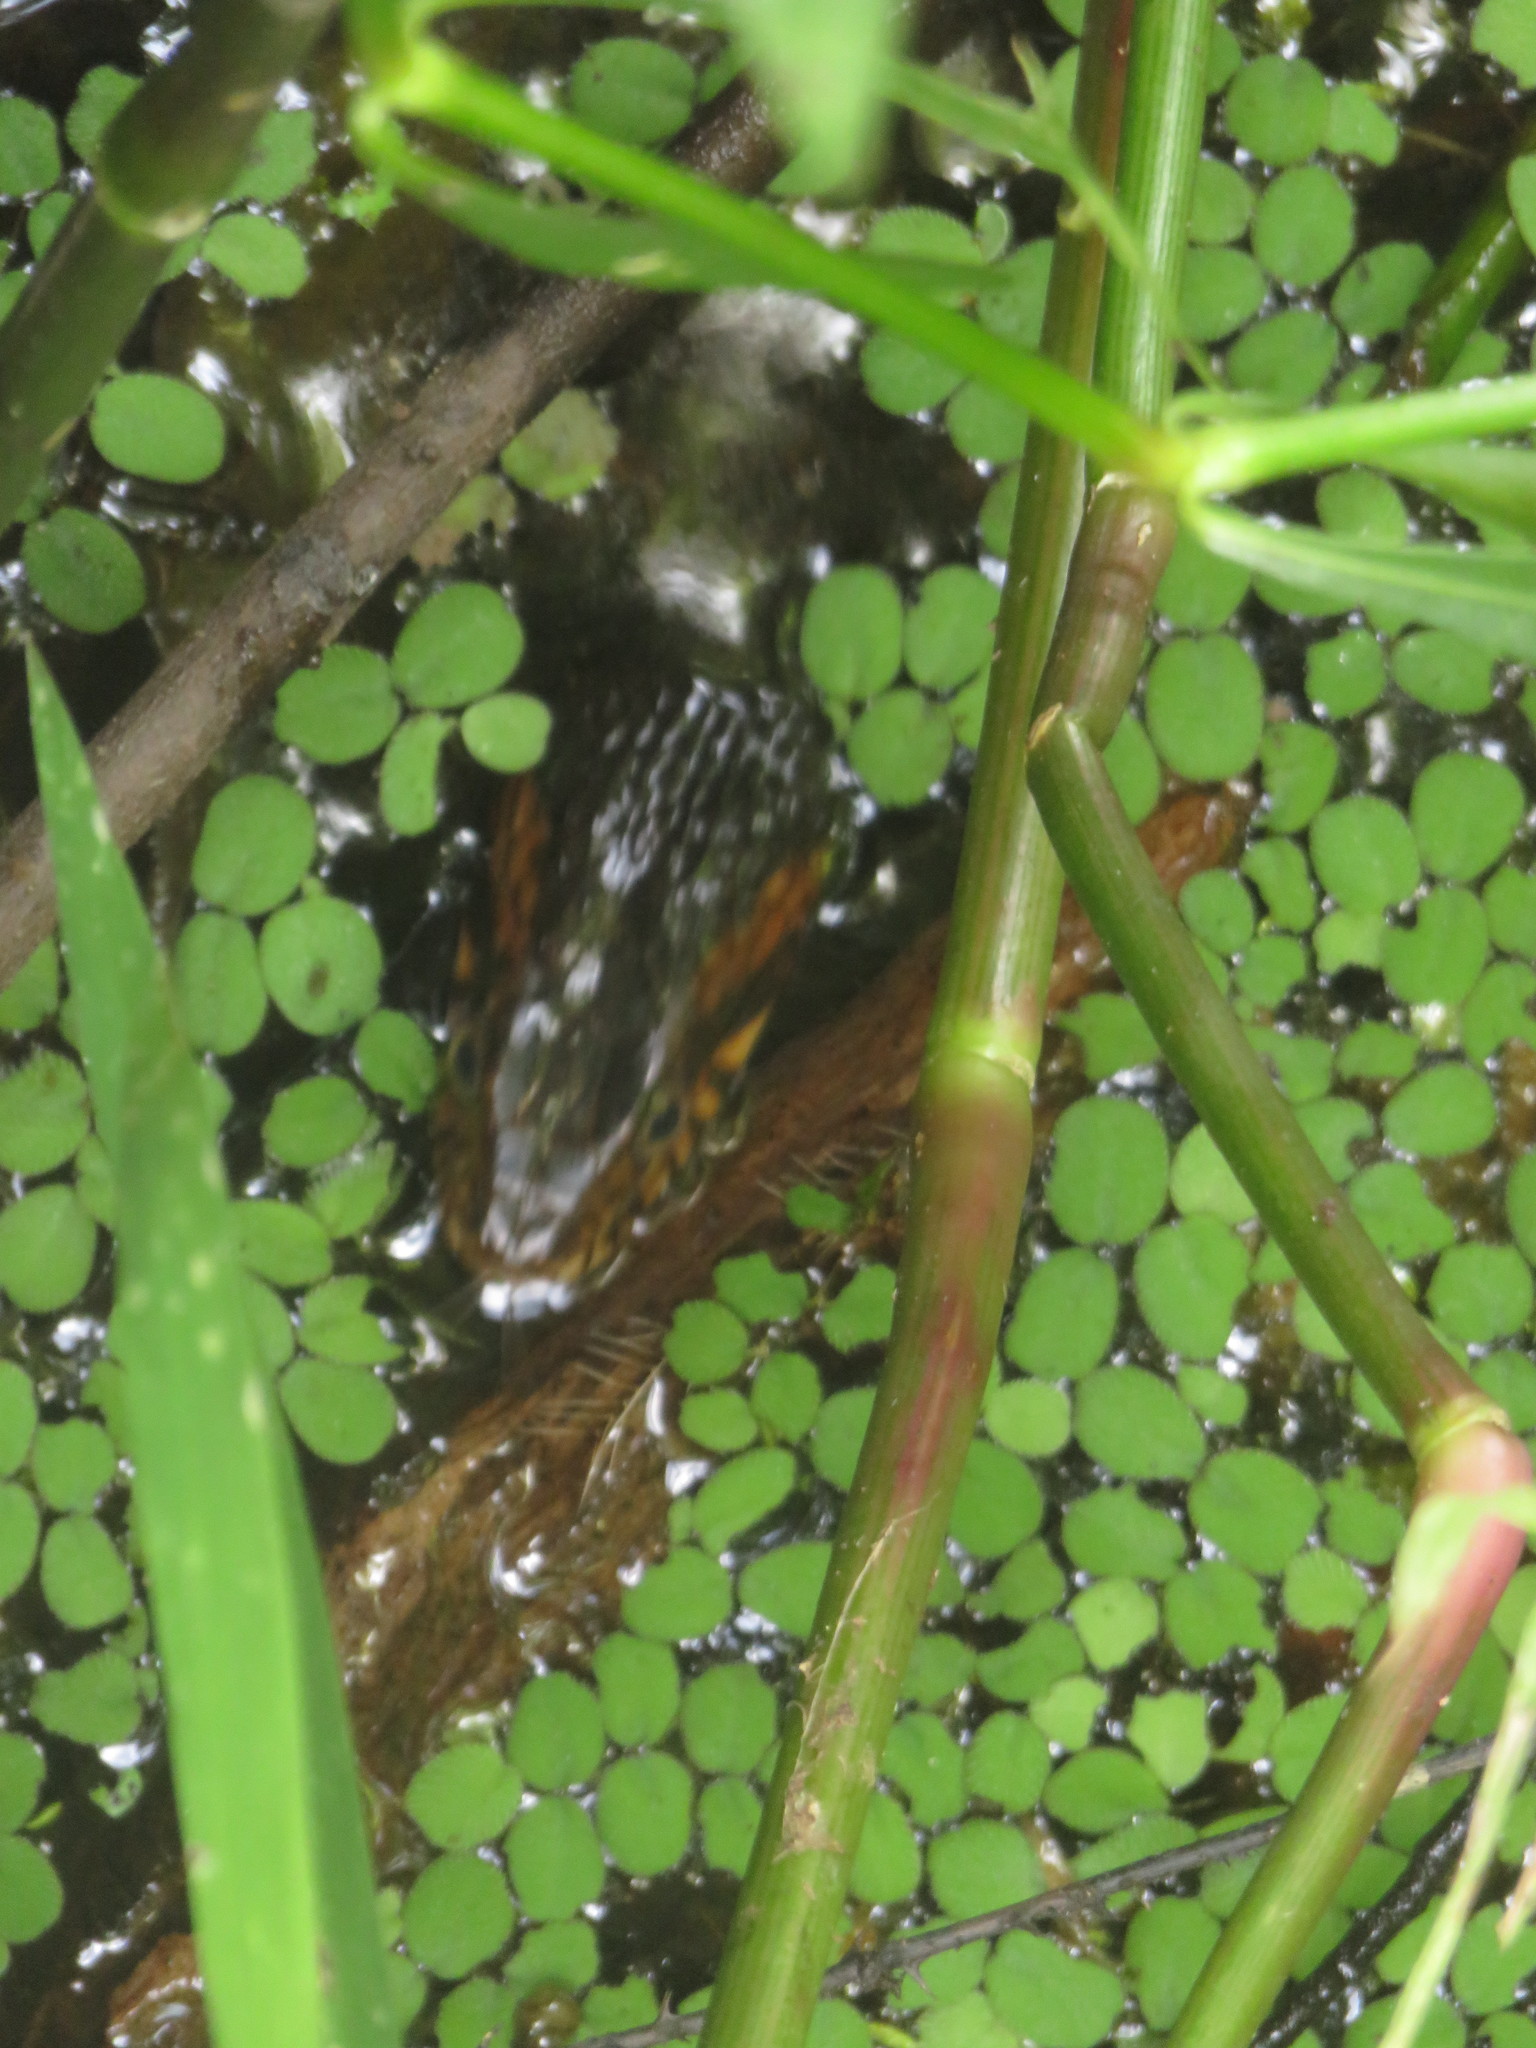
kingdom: Animalia
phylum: Chordata
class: Squamata
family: Colubridae
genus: Nerodia
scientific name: Nerodia fasciata
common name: Southern water snake
